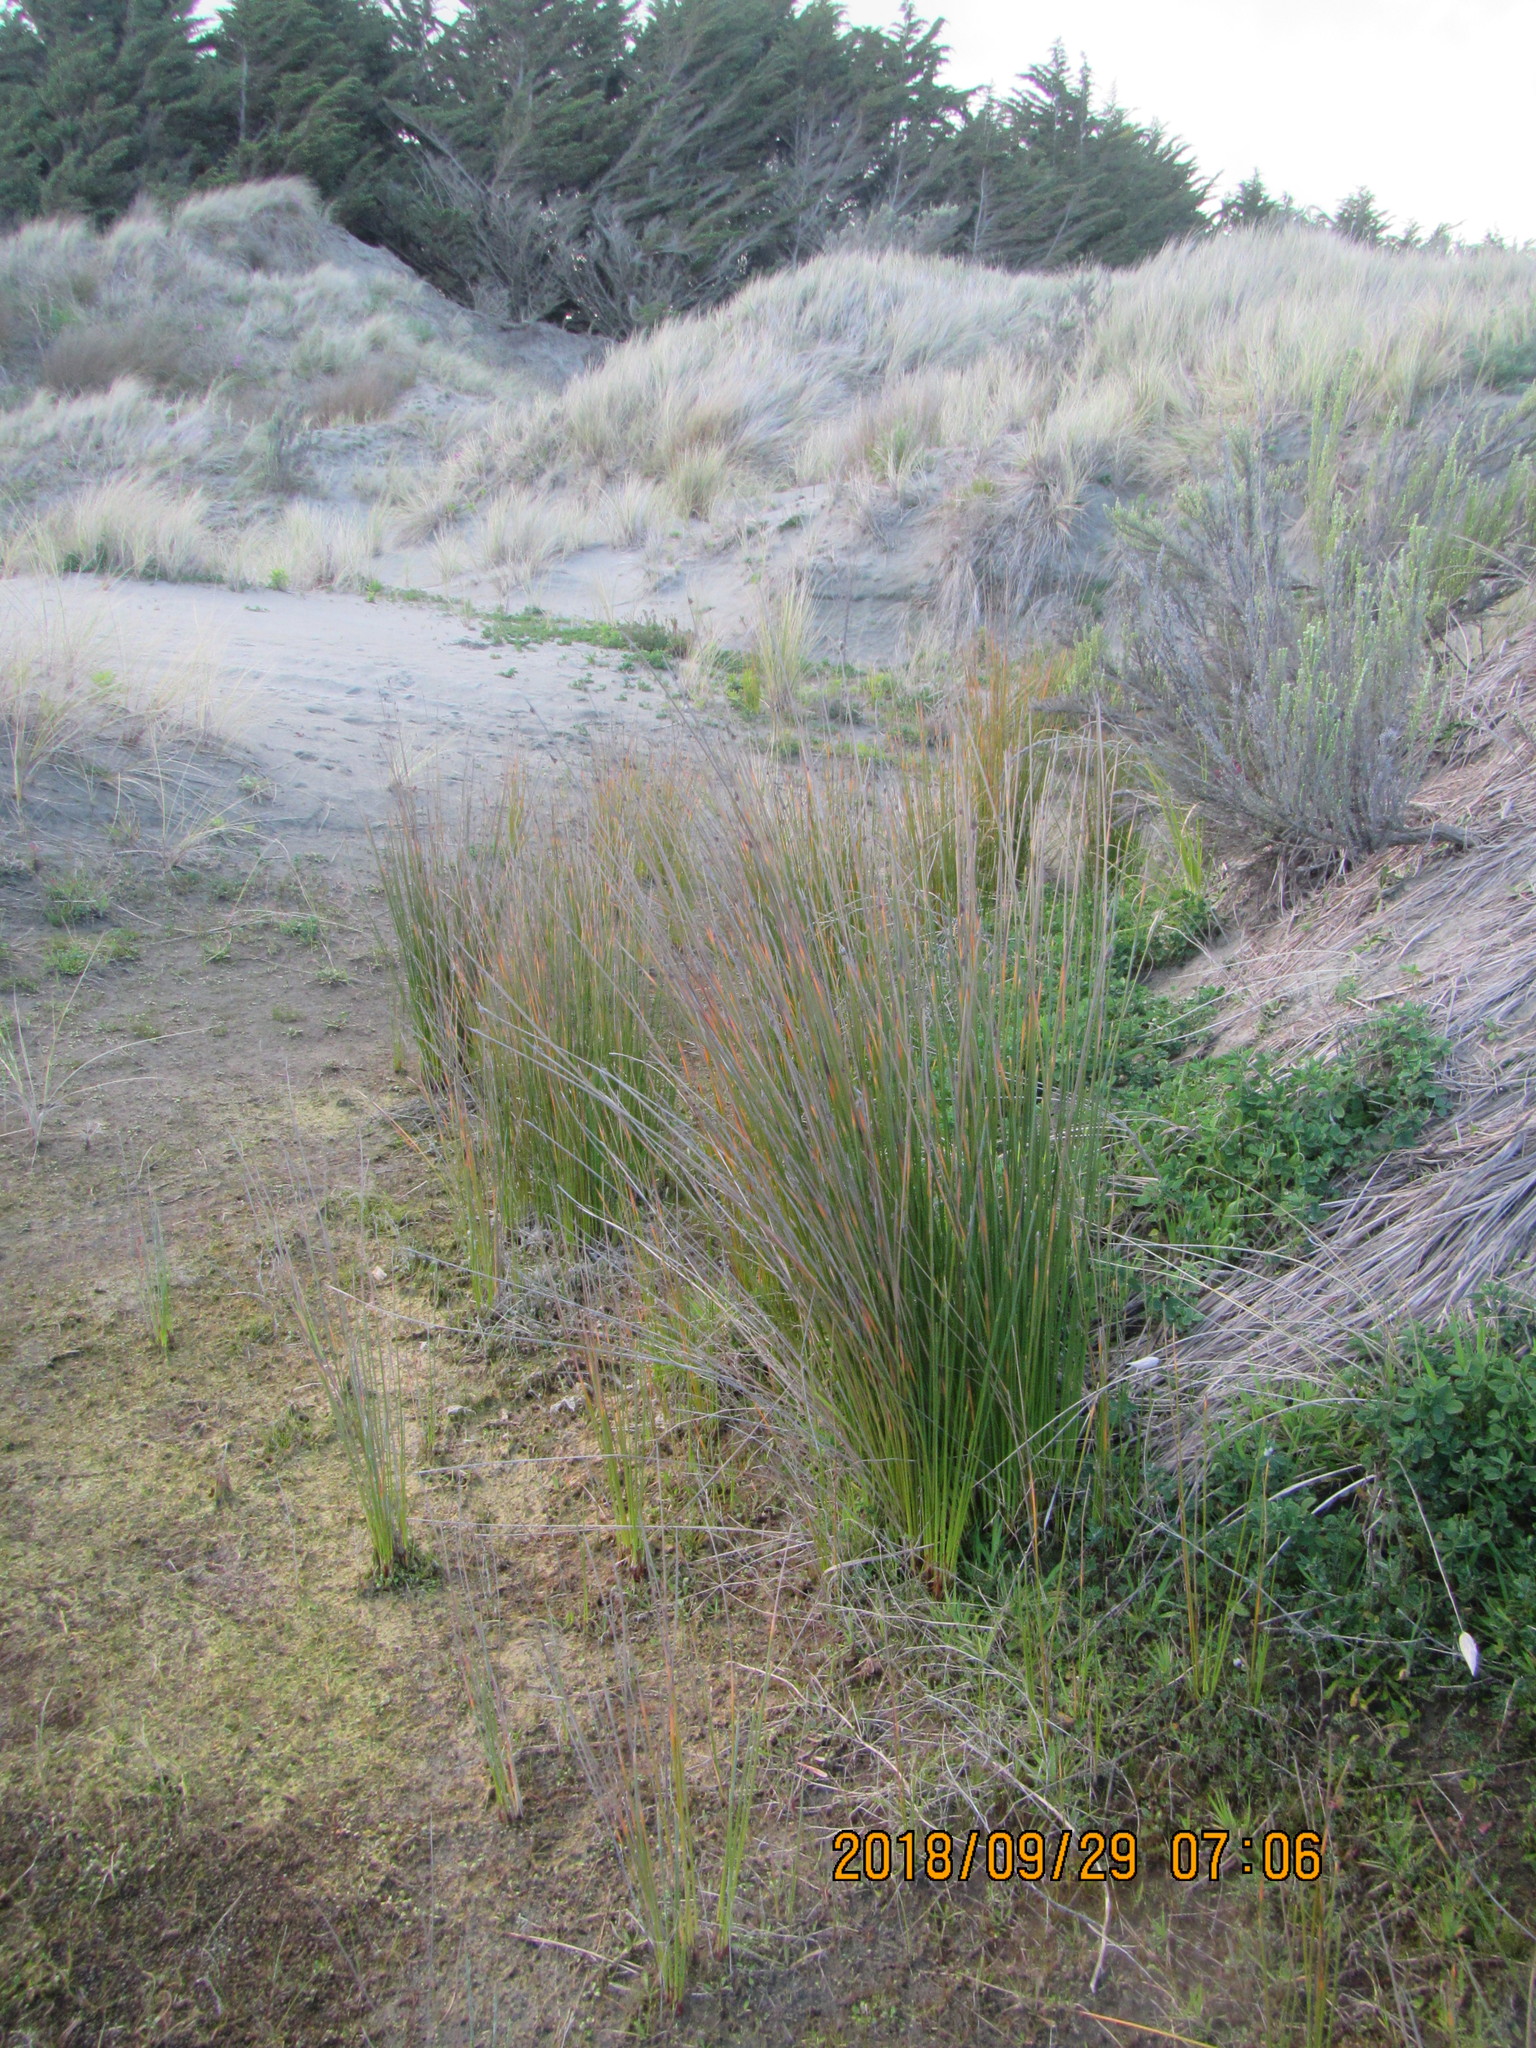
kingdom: Plantae
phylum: Tracheophyta
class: Liliopsida
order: Poales
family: Cyperaceae
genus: Ficinia
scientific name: Ficinia nodosa
